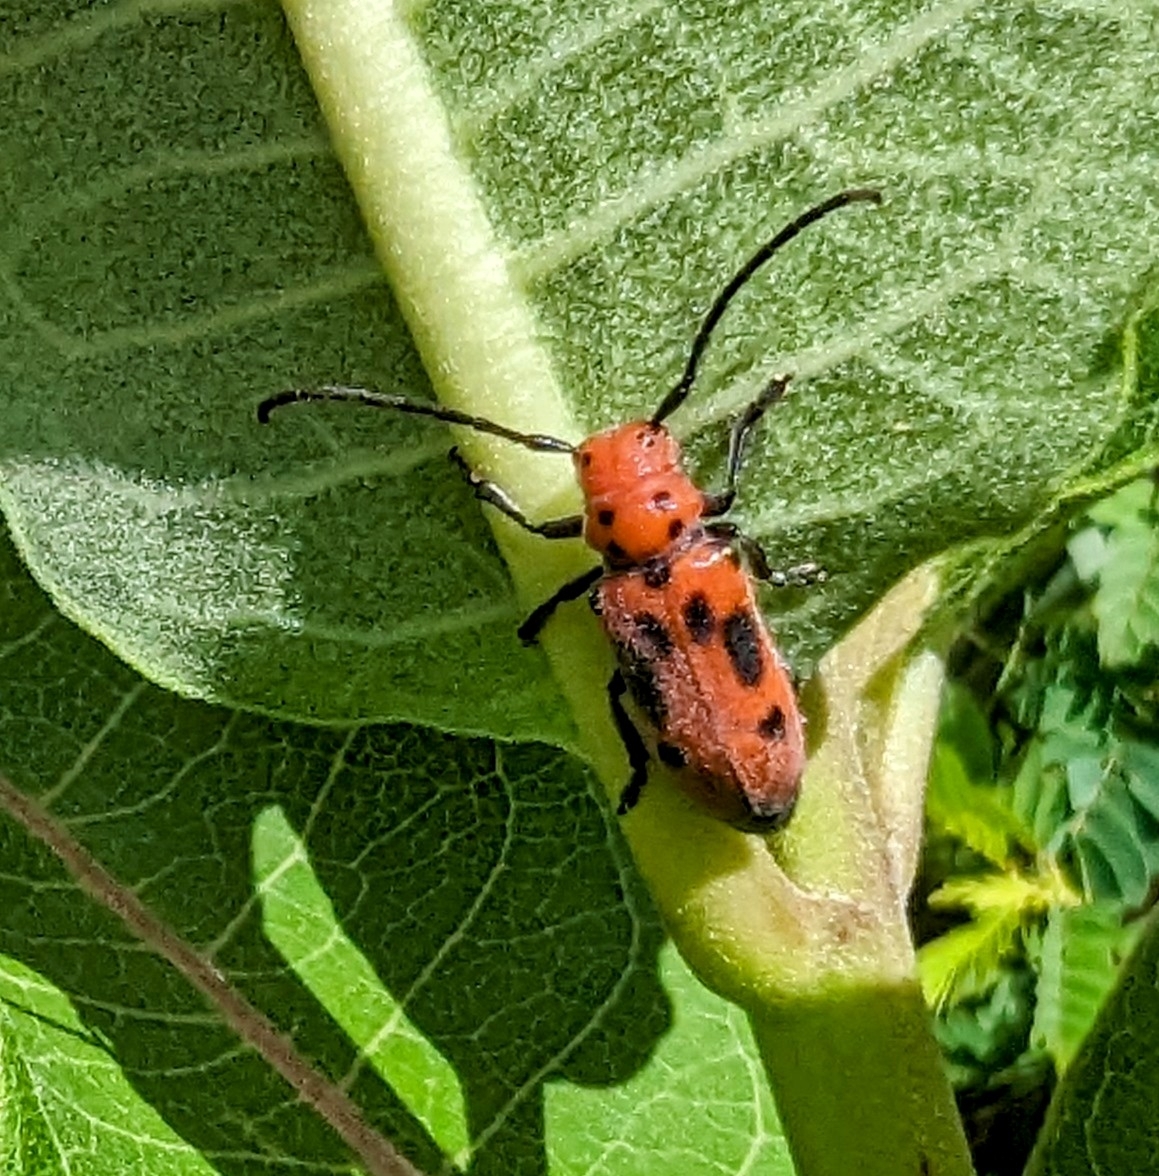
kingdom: Animalia
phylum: Arthropoda
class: Insecta
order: Coleoptera
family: Cerambycidae
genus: Tetraopes
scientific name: Tetraopes tetrophthalmus
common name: Red milkweed beetle
